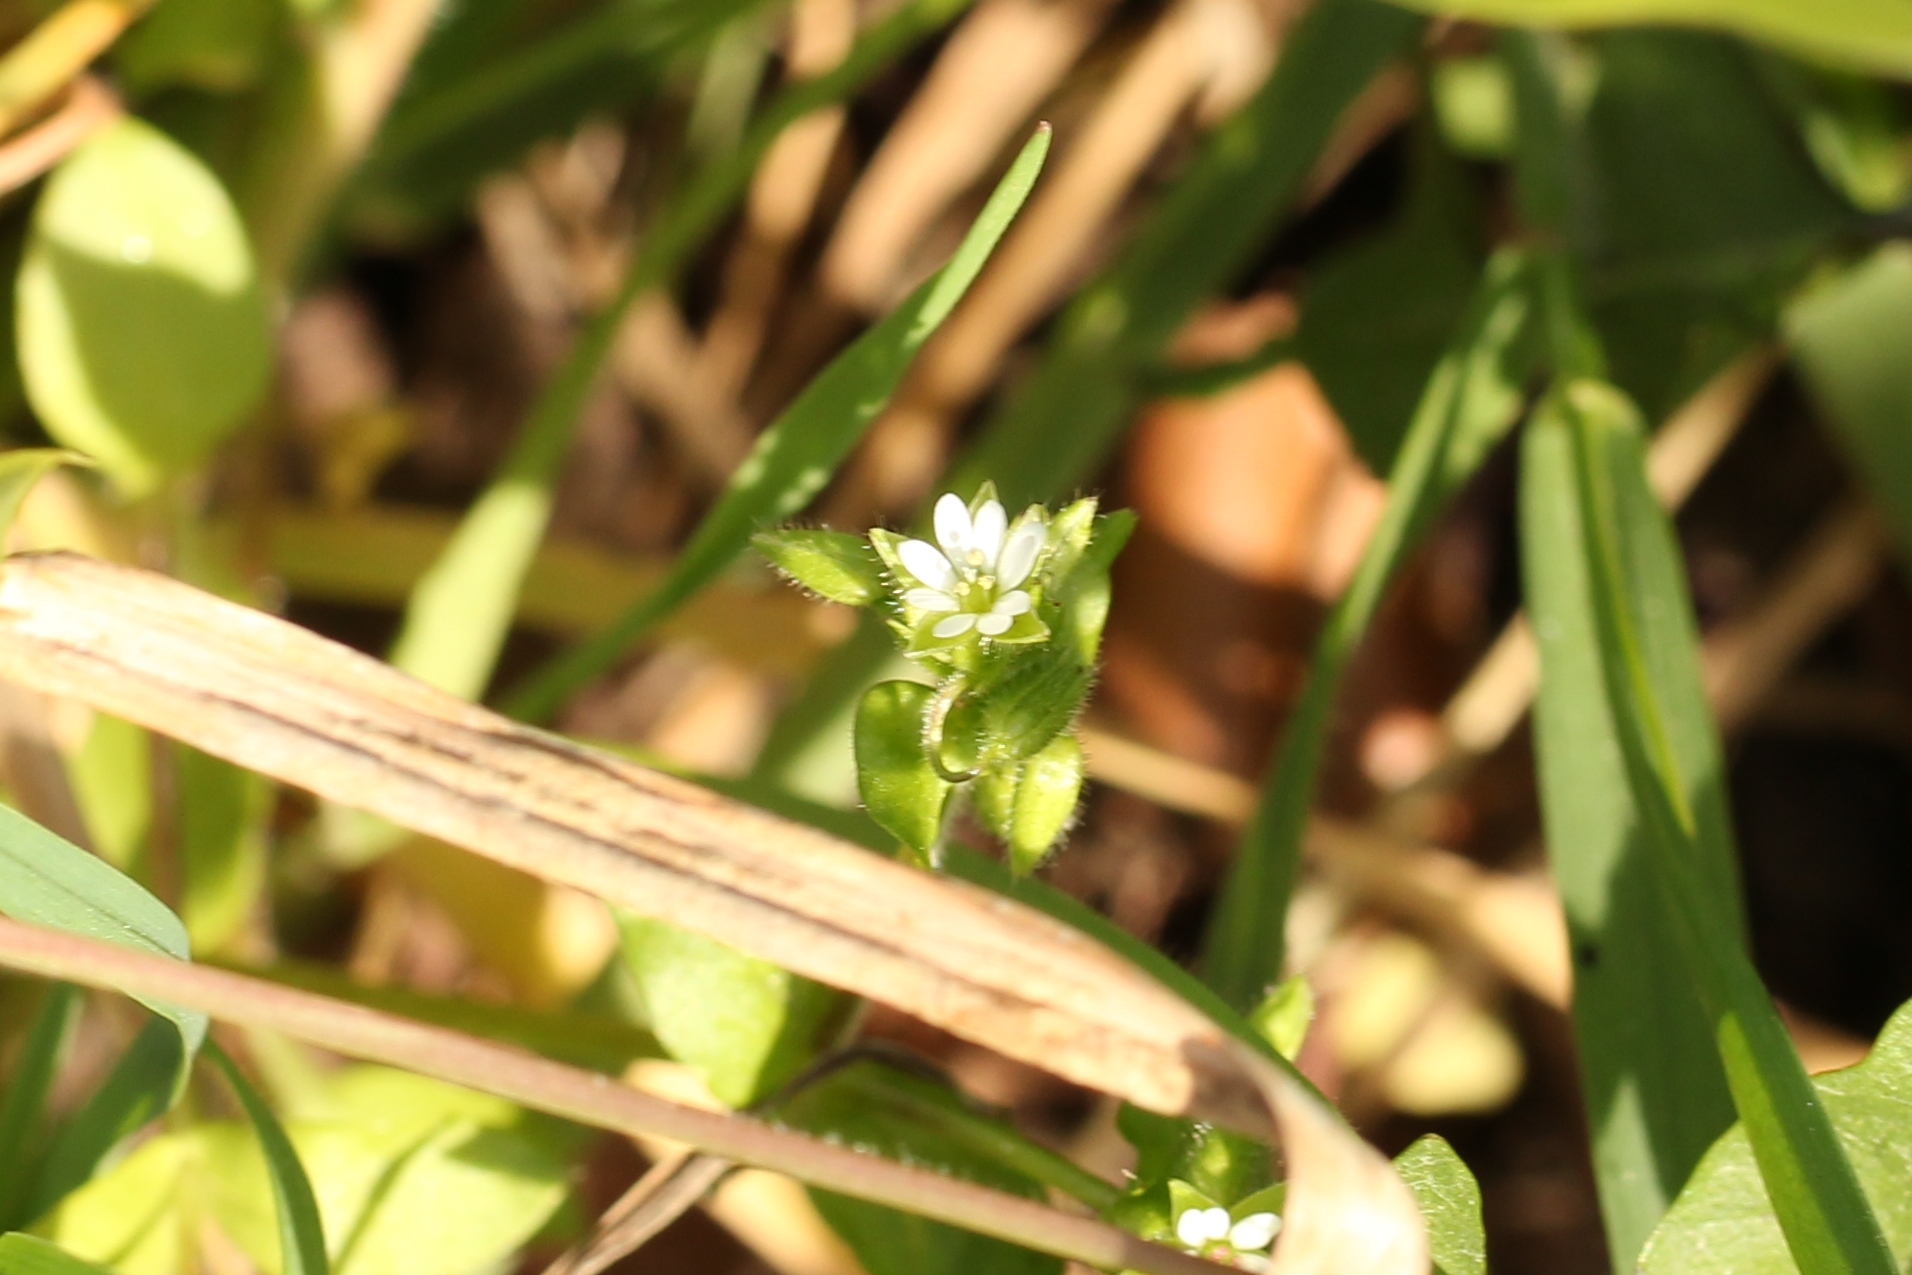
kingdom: Plantae
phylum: Tracheophyta
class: Magnoliopsida
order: Caryophyllales
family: Caryophyllaceae
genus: Stellaria
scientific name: Stellaria media
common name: Common chickweed
